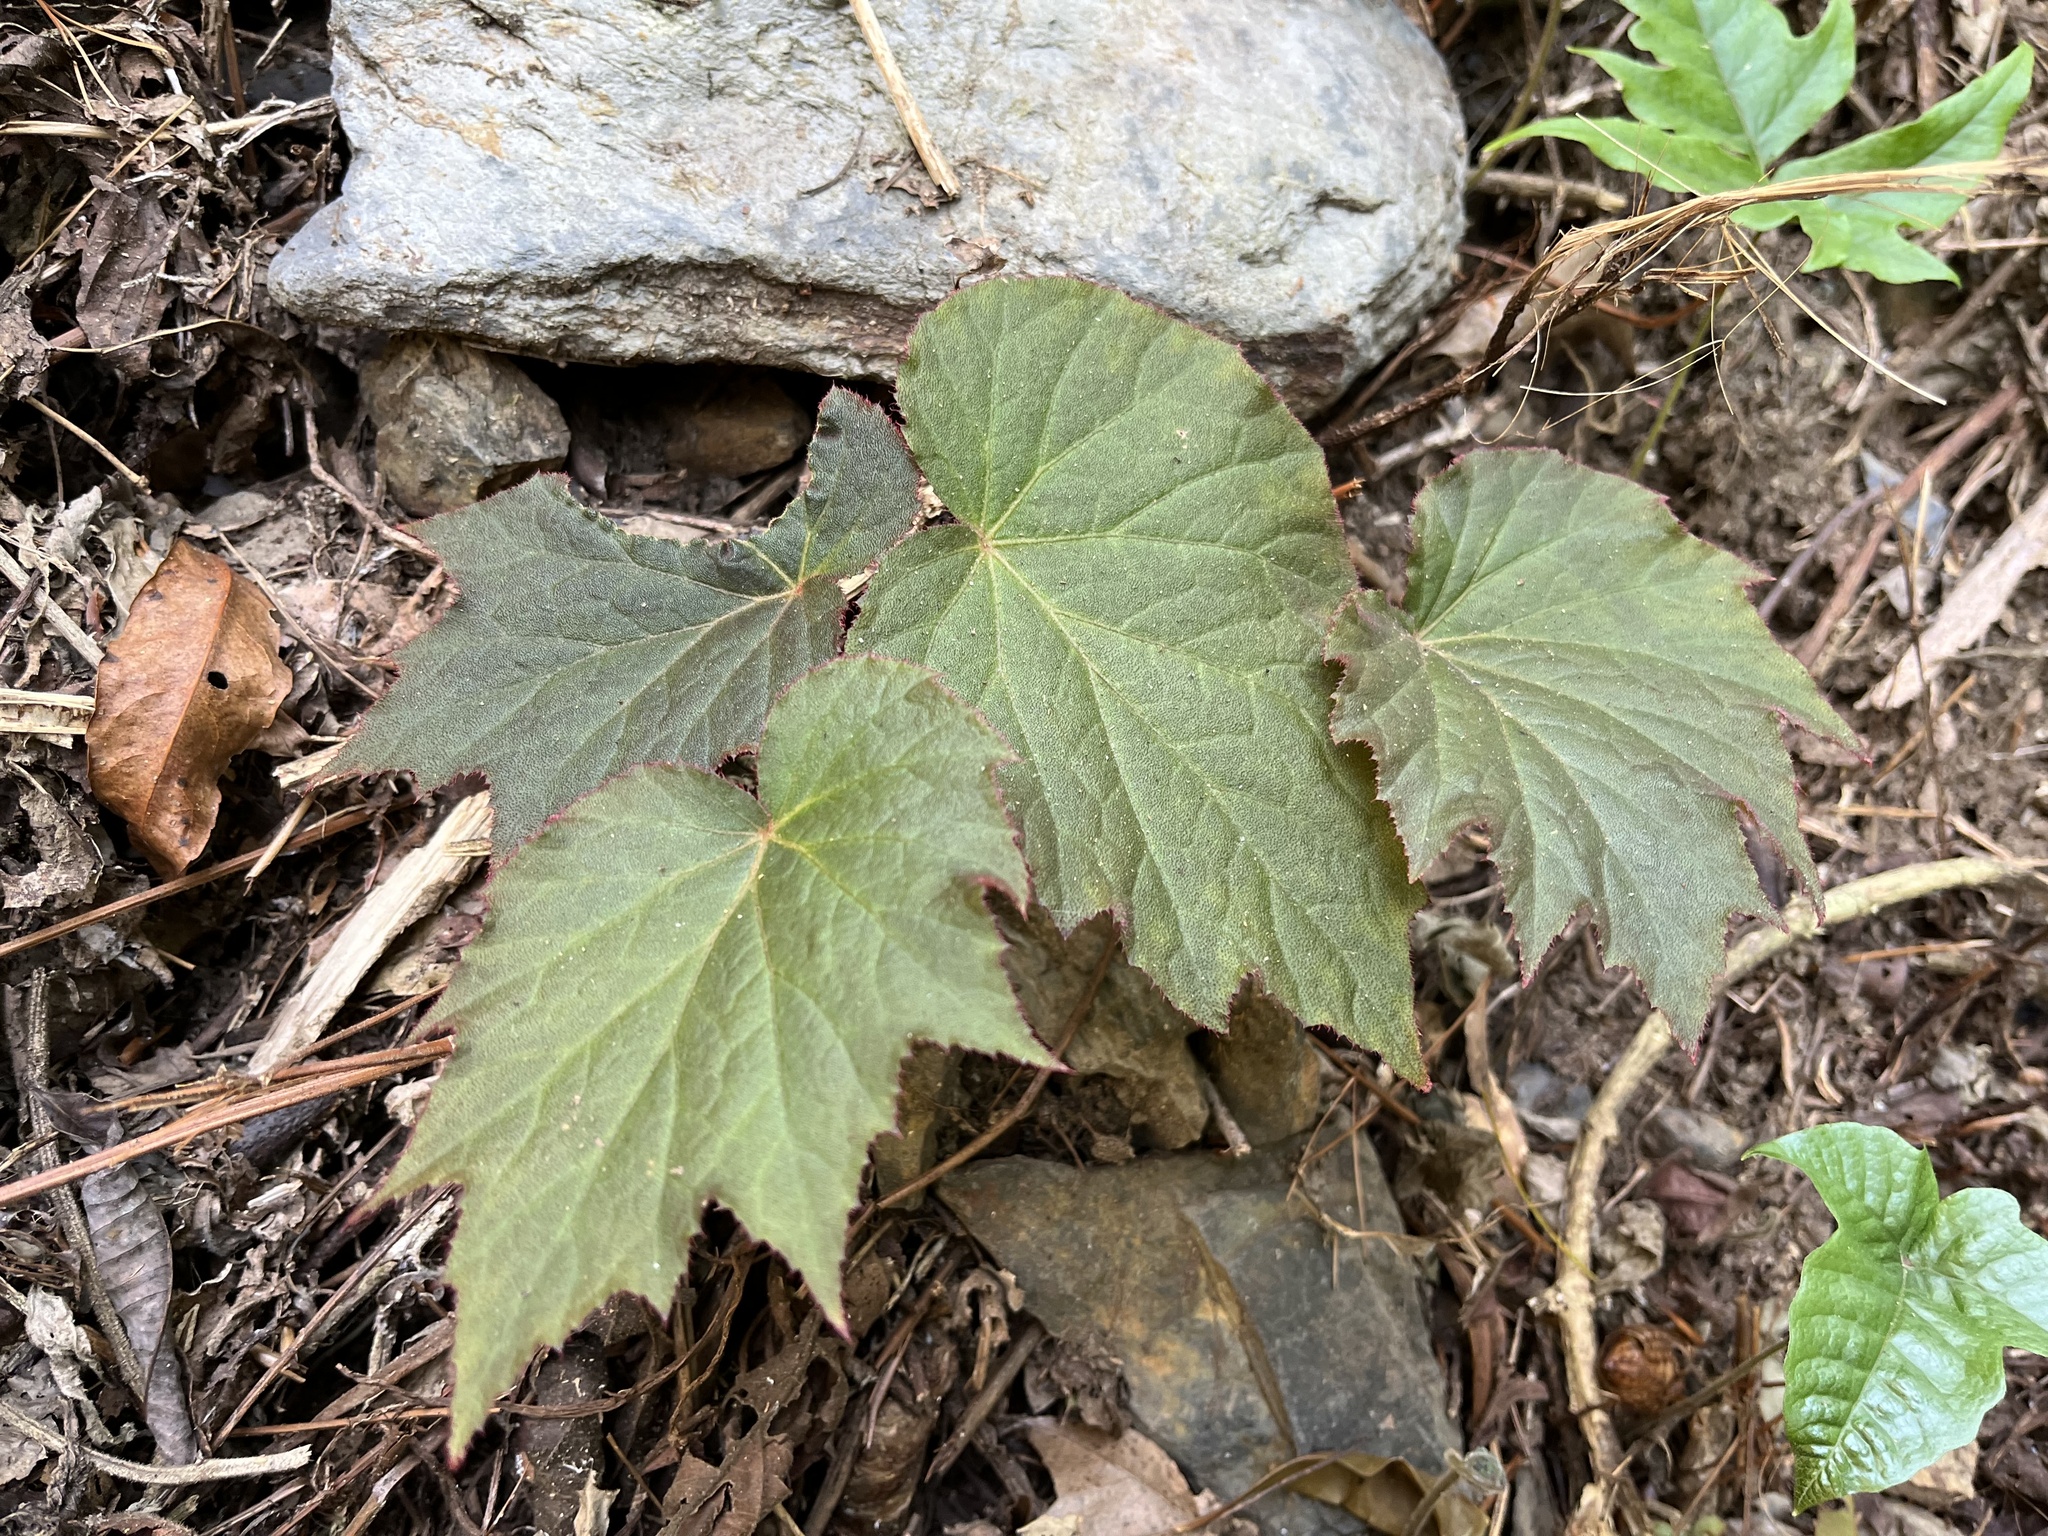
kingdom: Plantae
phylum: Tracheophyta
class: Magnoliopsida
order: Cucurbitales
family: Begoniaceae
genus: Begonia
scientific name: Begonia palmata
